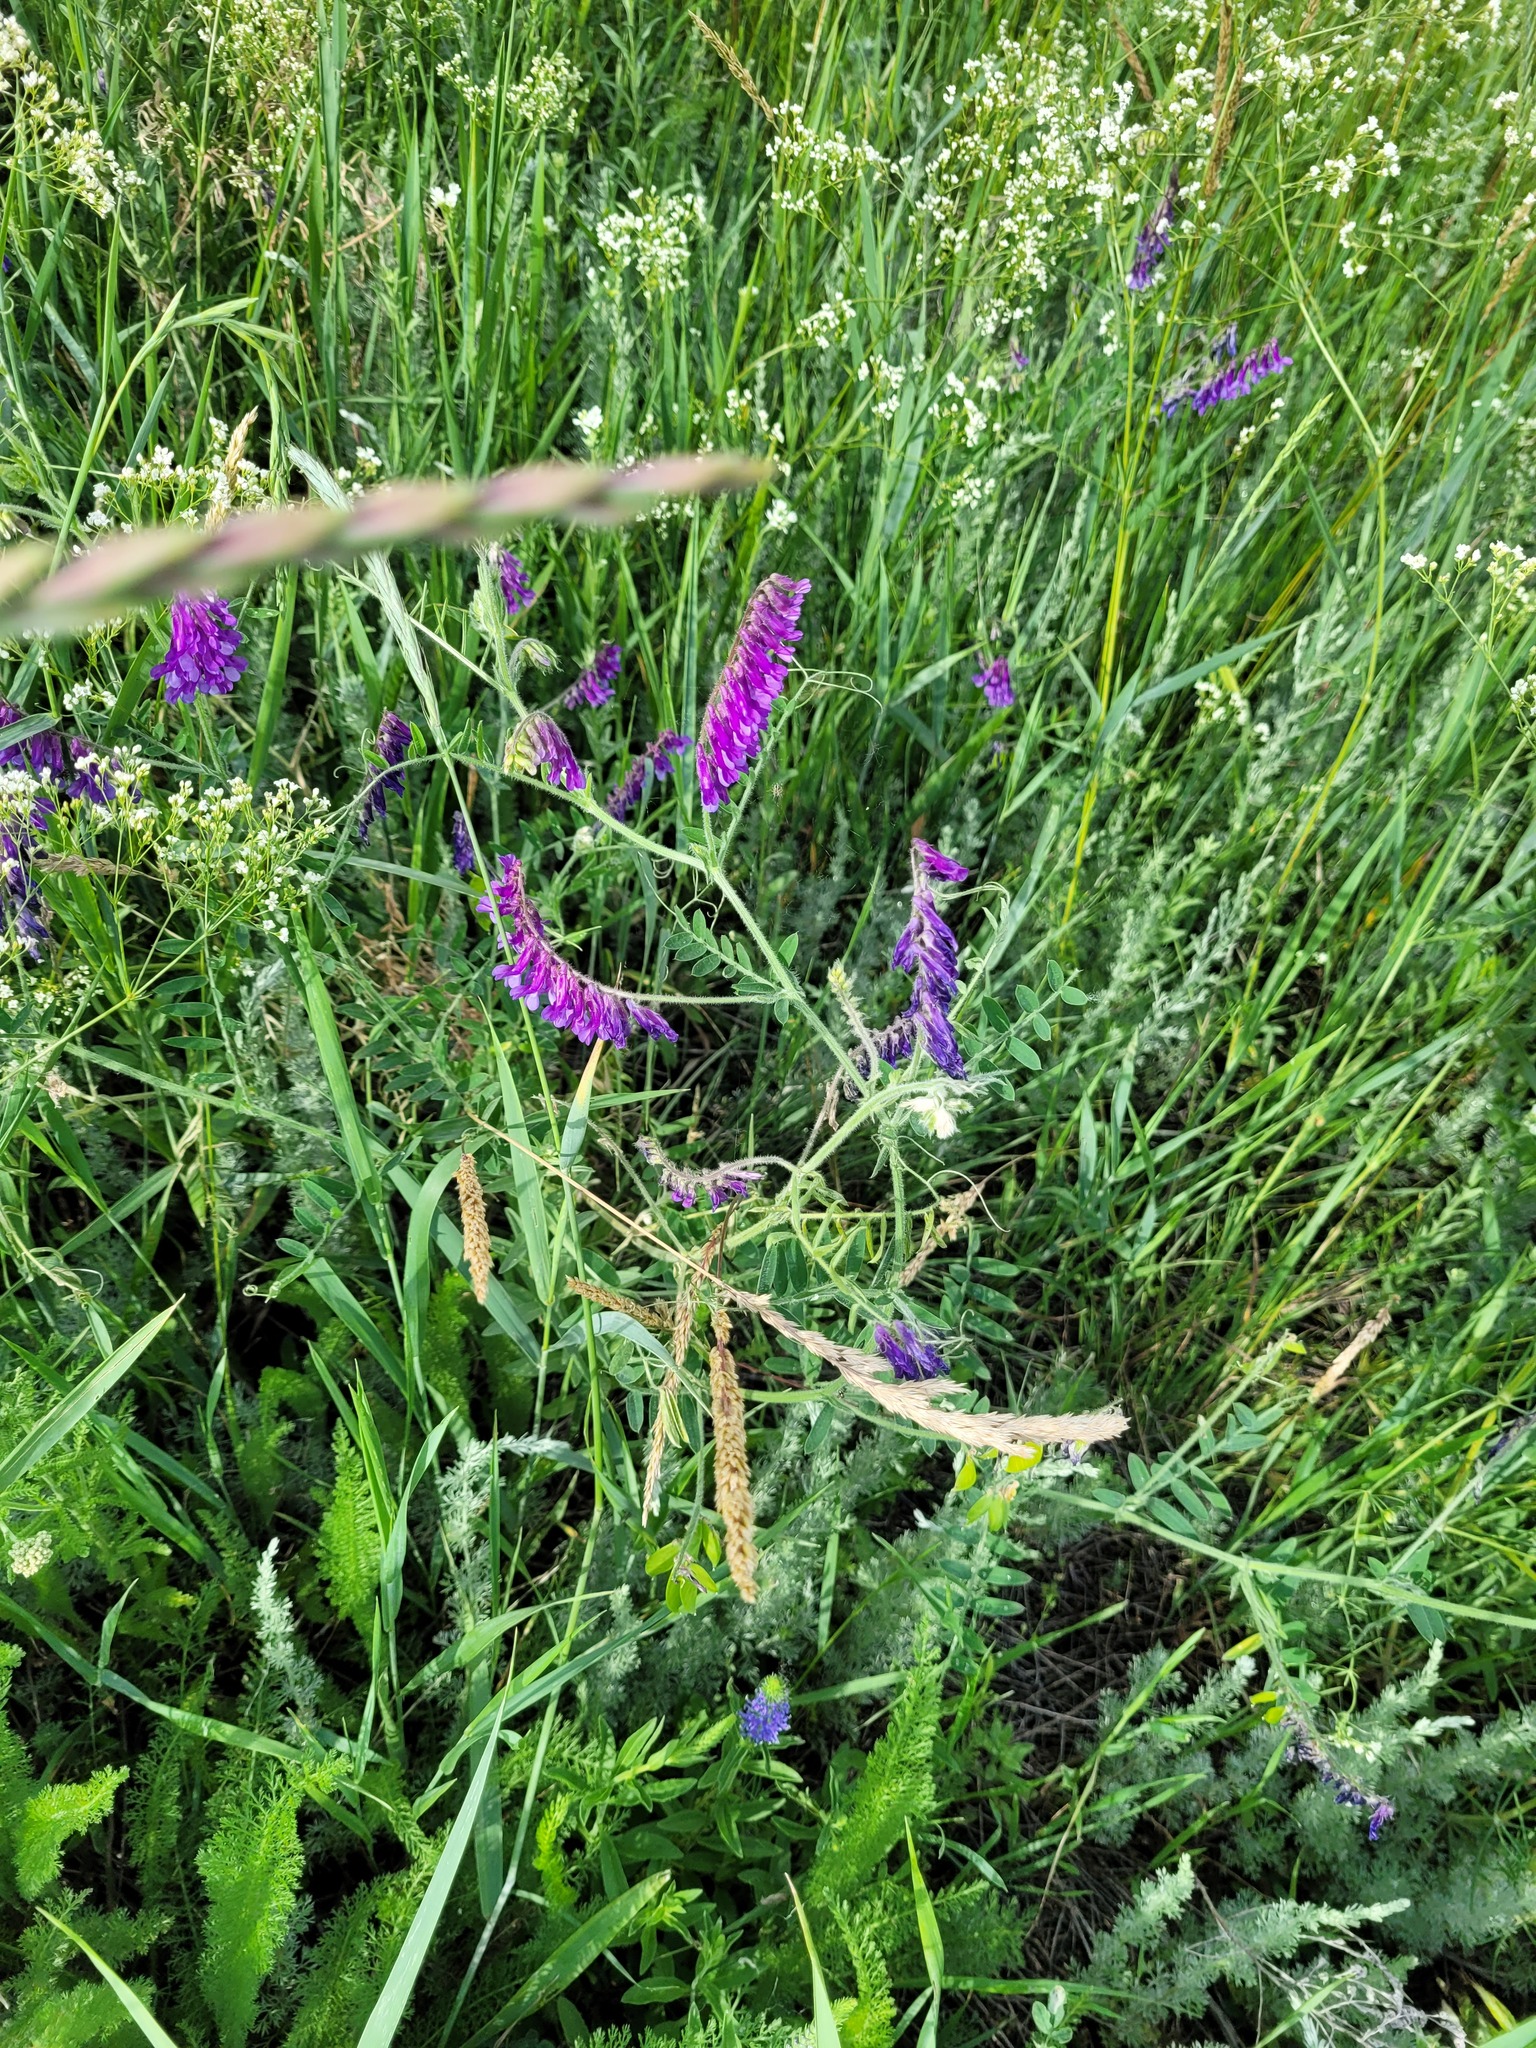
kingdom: Plantae
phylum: Tracheophyta
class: Magnoliopsida
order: Fabales
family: Fabaceae
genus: Vicia
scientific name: Vicia villosa
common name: Fodder vetch
